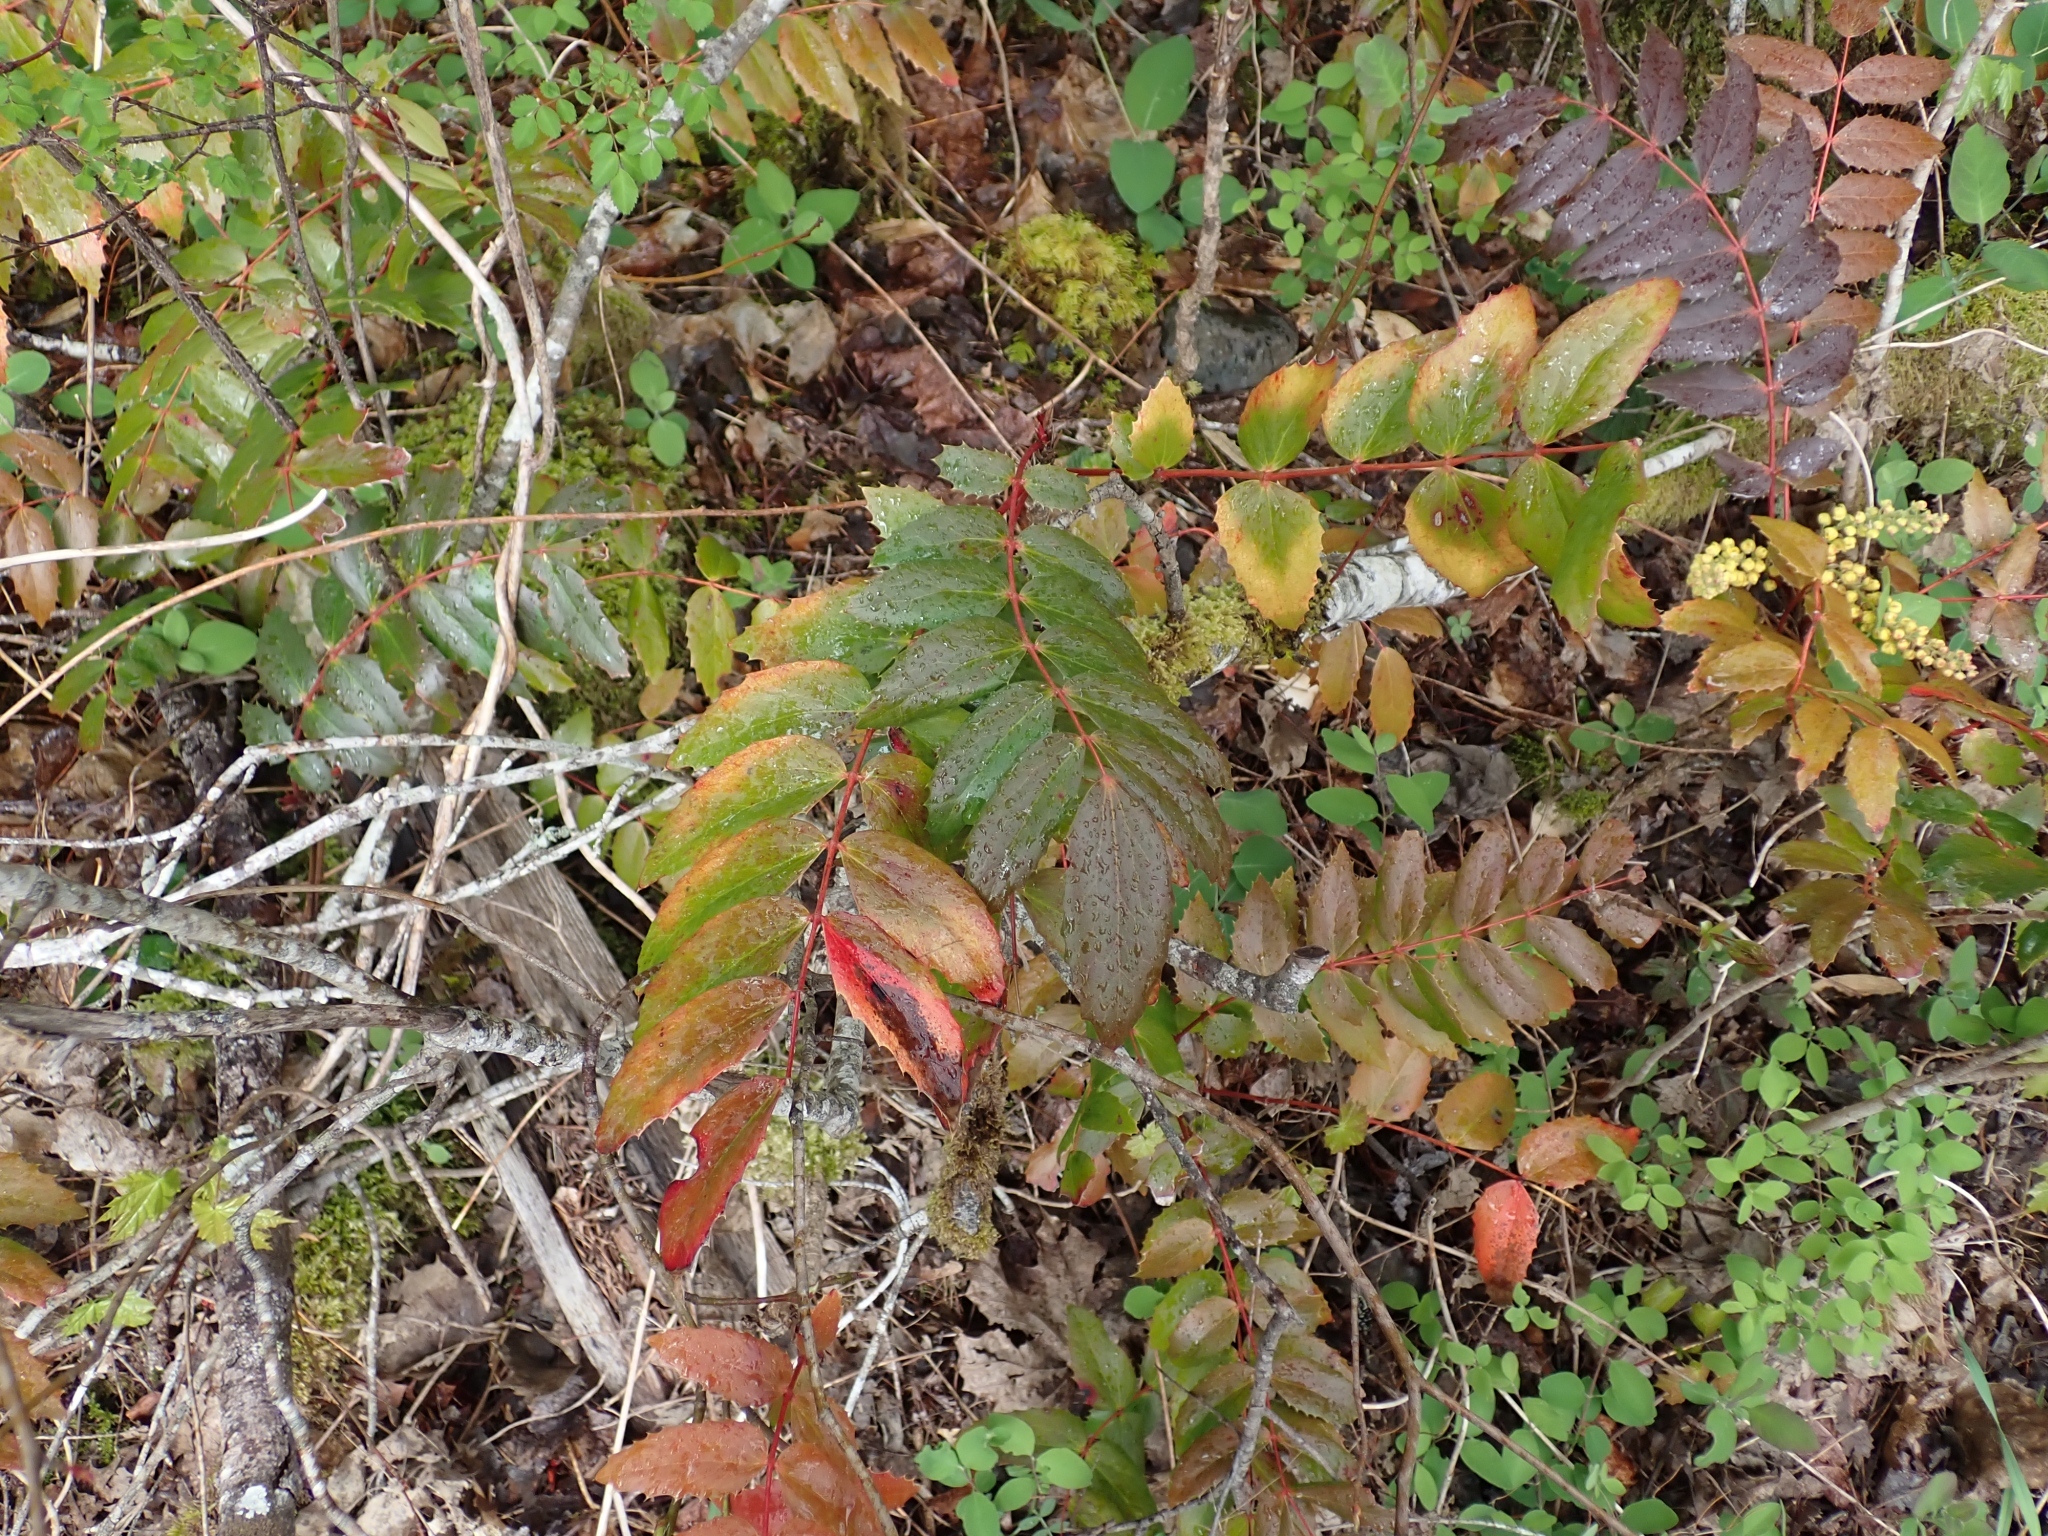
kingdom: Plantae
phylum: Tracheophyta
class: Magnoliopsida
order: Ranunculales
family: Berberidaceae
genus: Mahonia
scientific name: Mahonia nervosa
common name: Cascade oregon-grape
